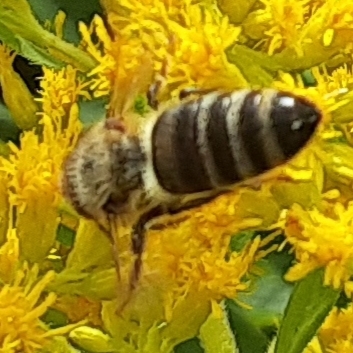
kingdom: Animalia
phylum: Arthropoda
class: Insecta
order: Hymenoptera
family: Apidae
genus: Apis
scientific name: Apis mellifera
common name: Honey bee
